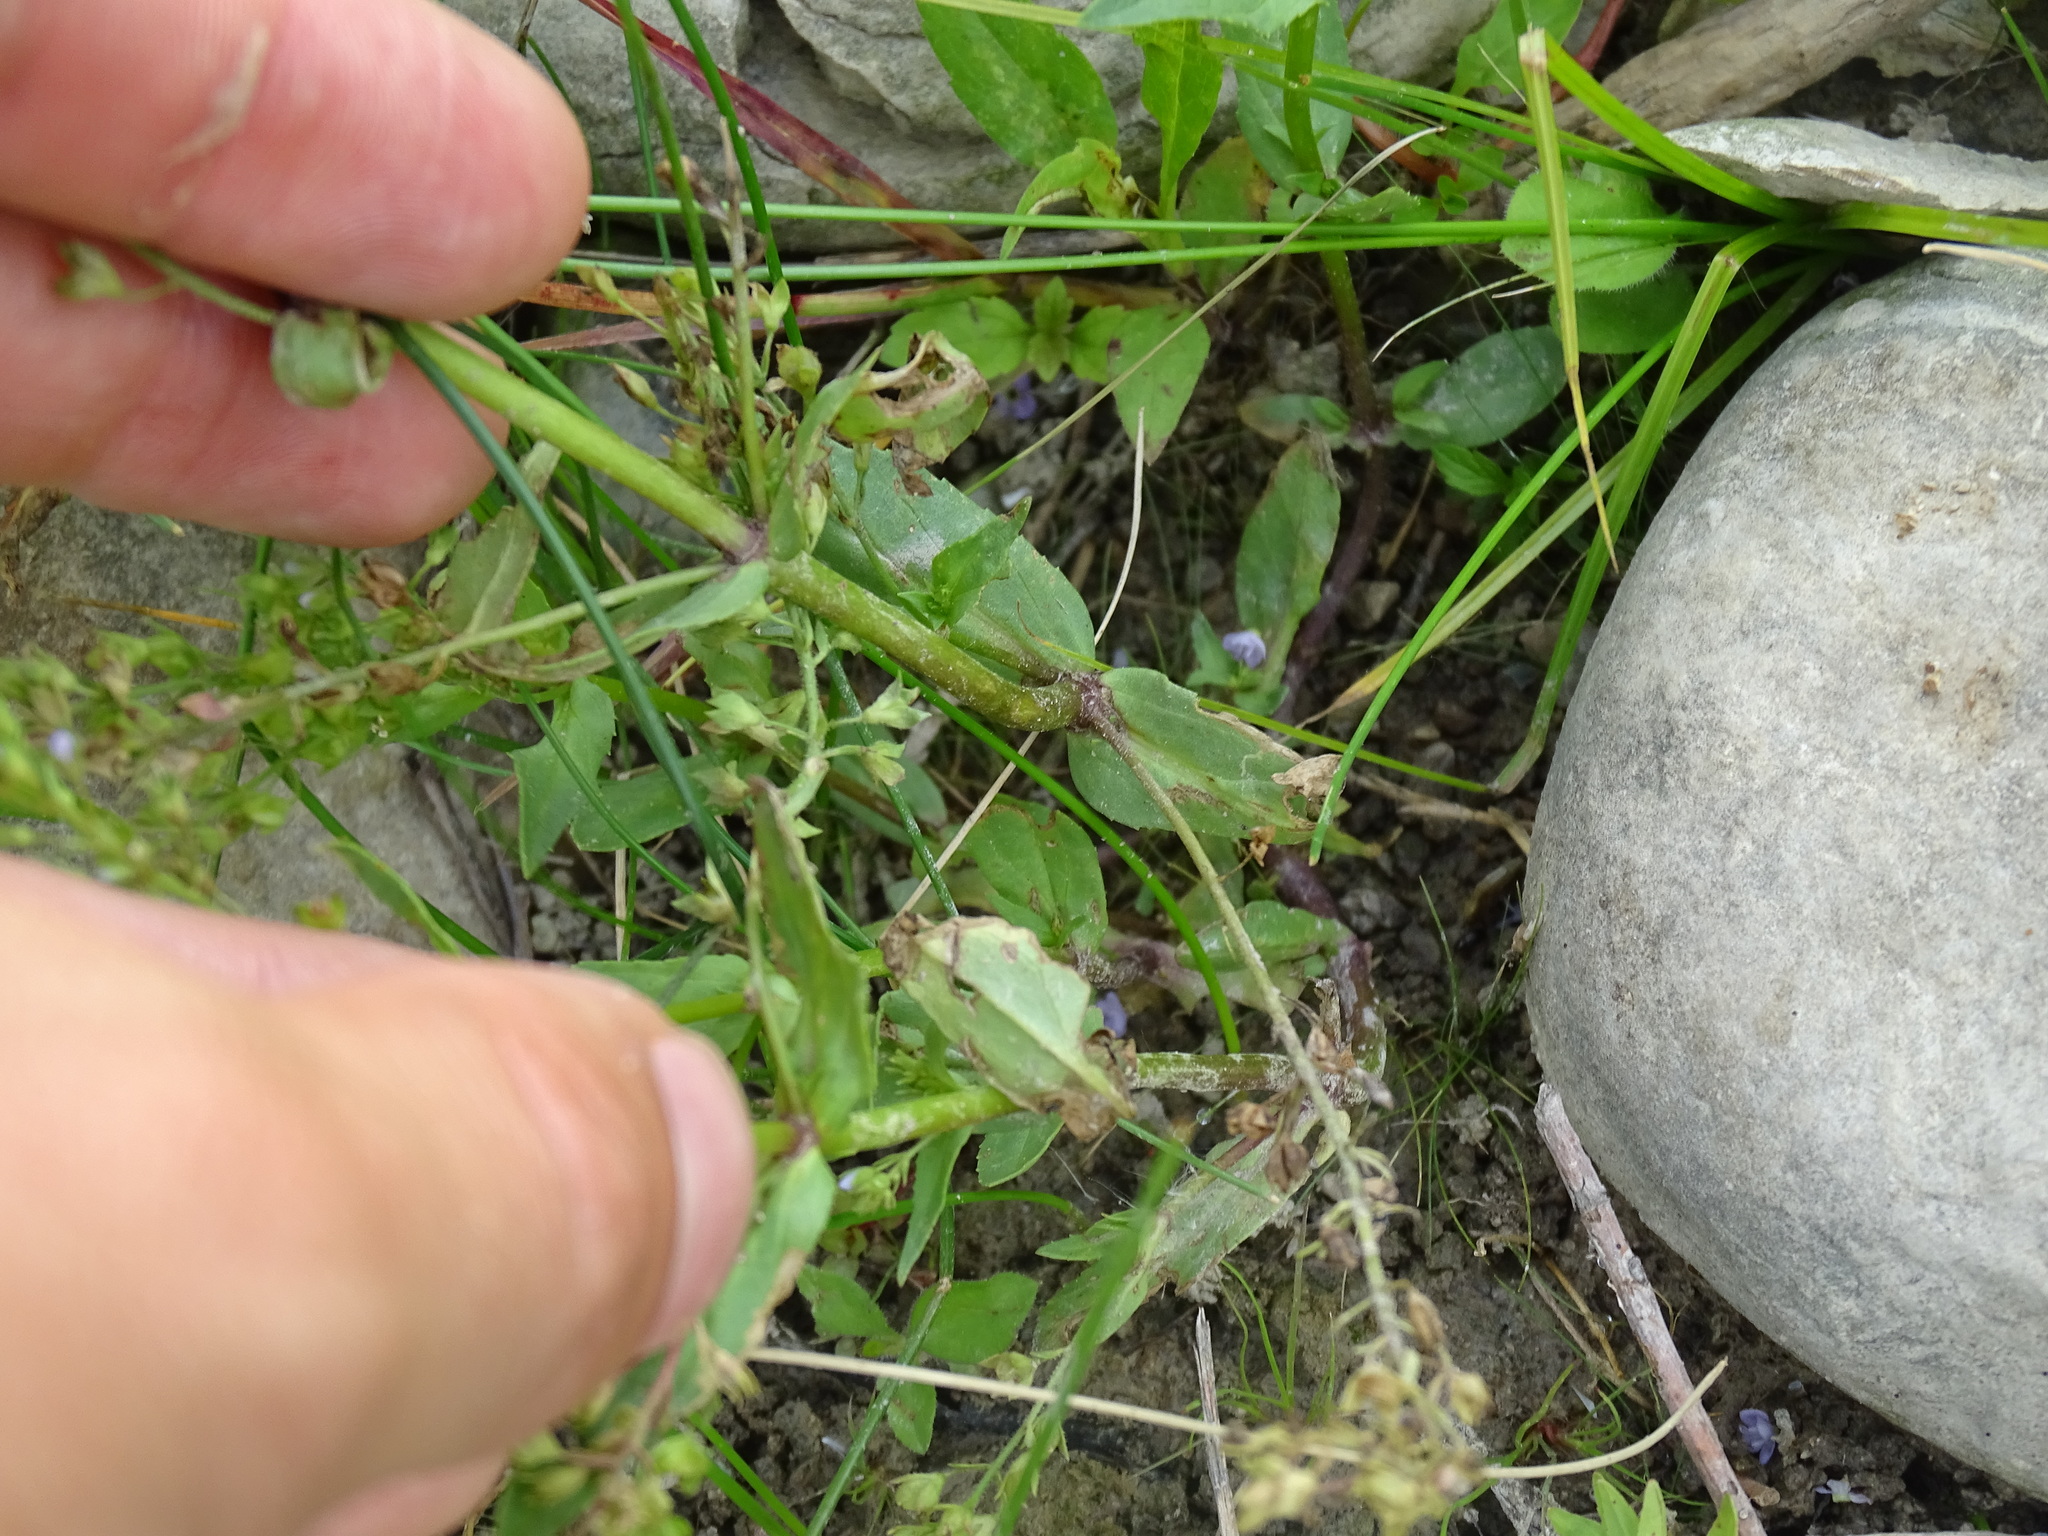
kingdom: Plantae
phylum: Tracheophyta
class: Magnoliopsida
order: Lamiales
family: Plantaginaceae
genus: Veronica
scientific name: Veronica anagallis-aquatica
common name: Water speedwell
